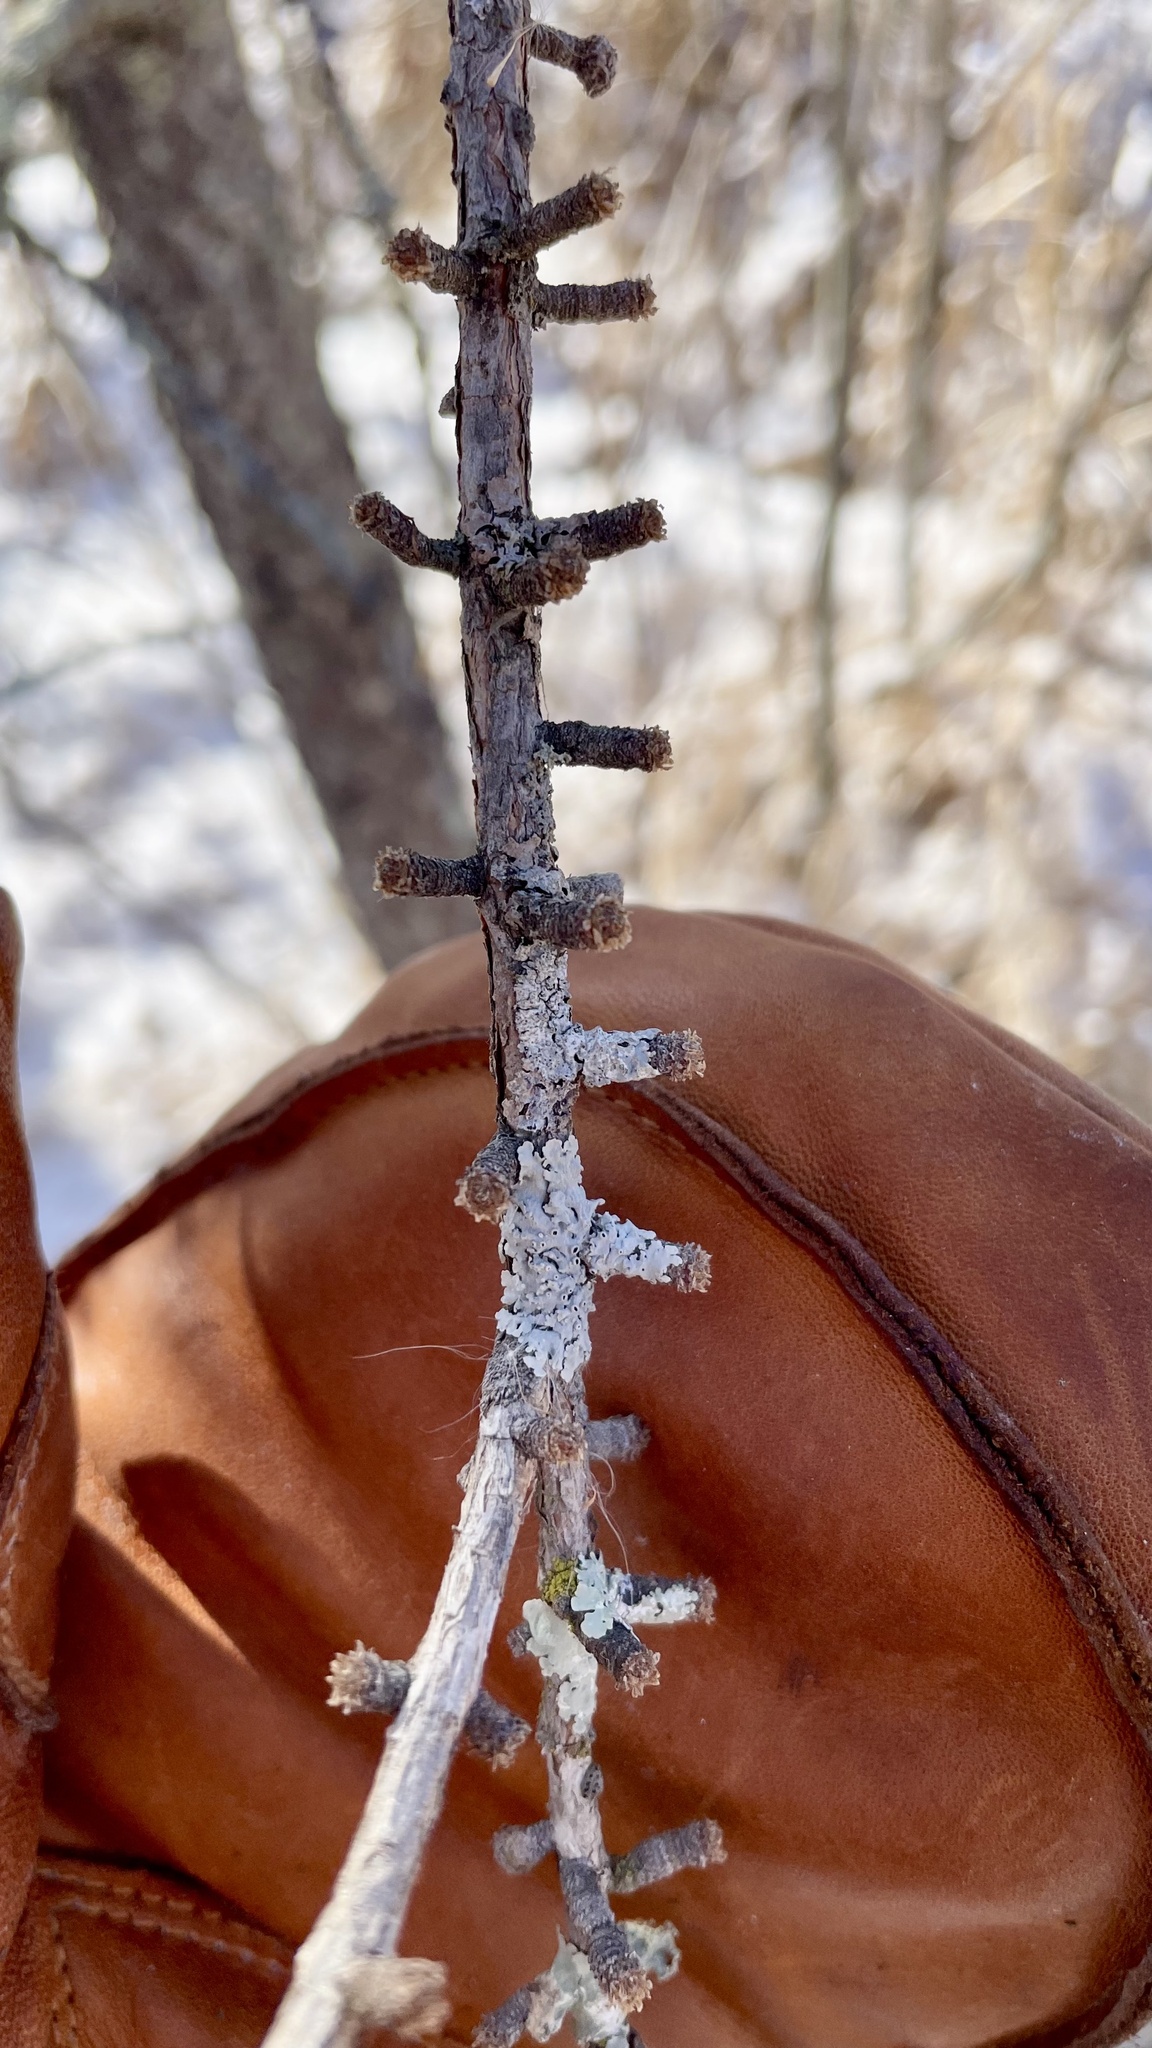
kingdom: Plantae
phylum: Tracheophyta
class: Pinopsida
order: Pinales
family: Pinaceae
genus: Larix
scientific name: Larix laricina
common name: American larch
